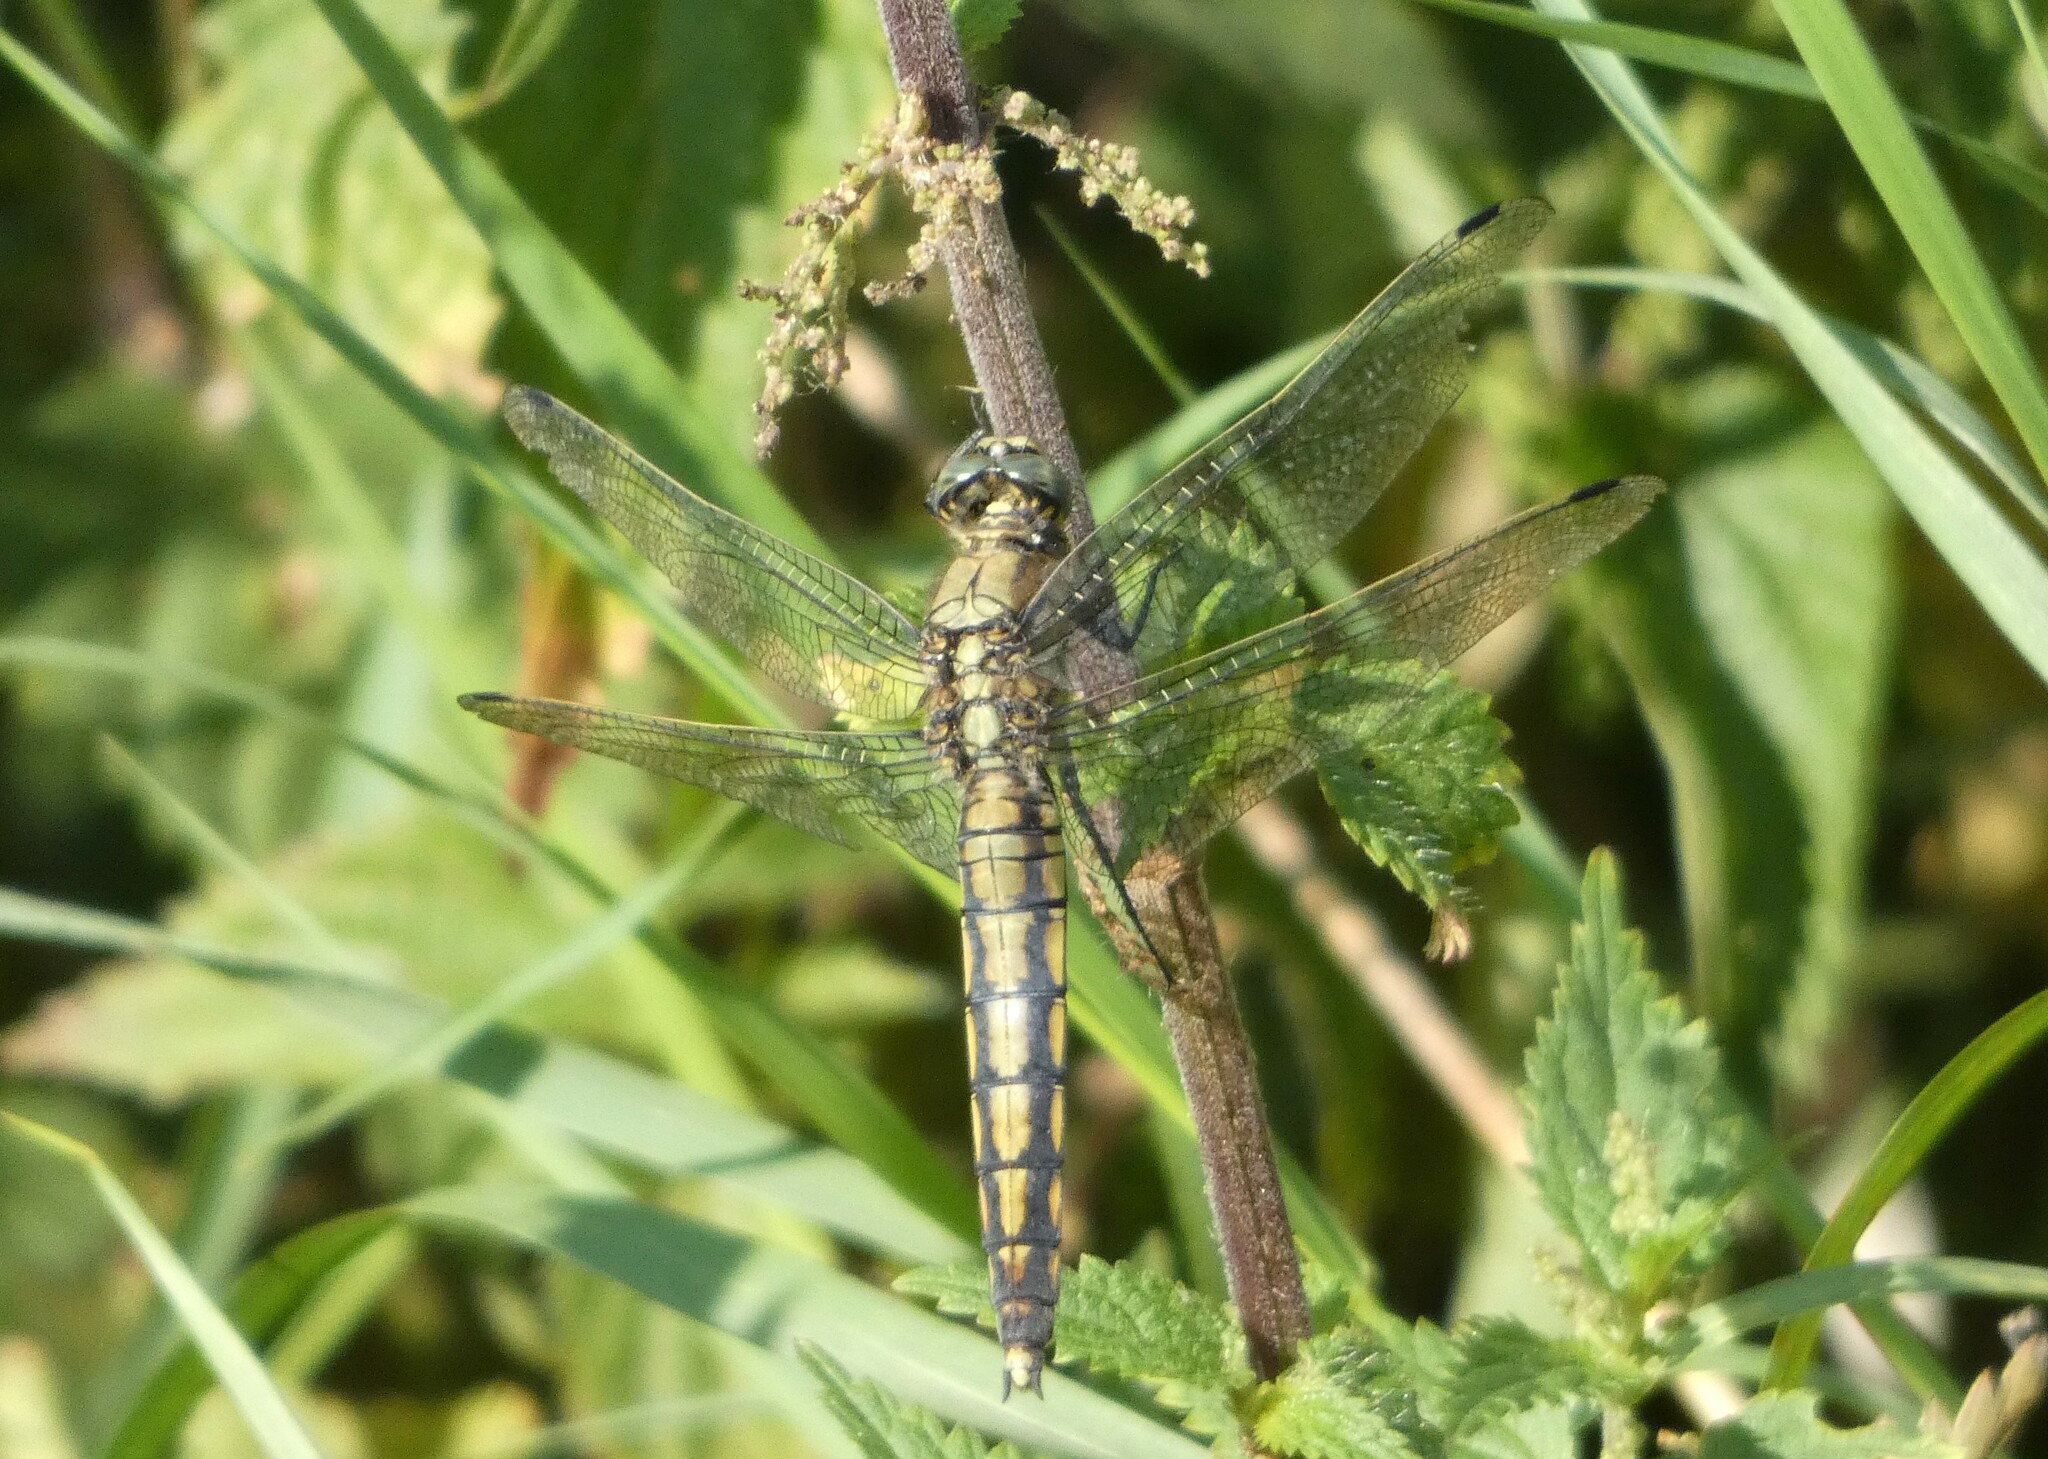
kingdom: Animalia
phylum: Arthropoda
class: Insecta
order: Odonata
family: Libellulidae
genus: Orthetrum
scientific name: Orthetrum cancellatum
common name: Black-tailed skimmer
